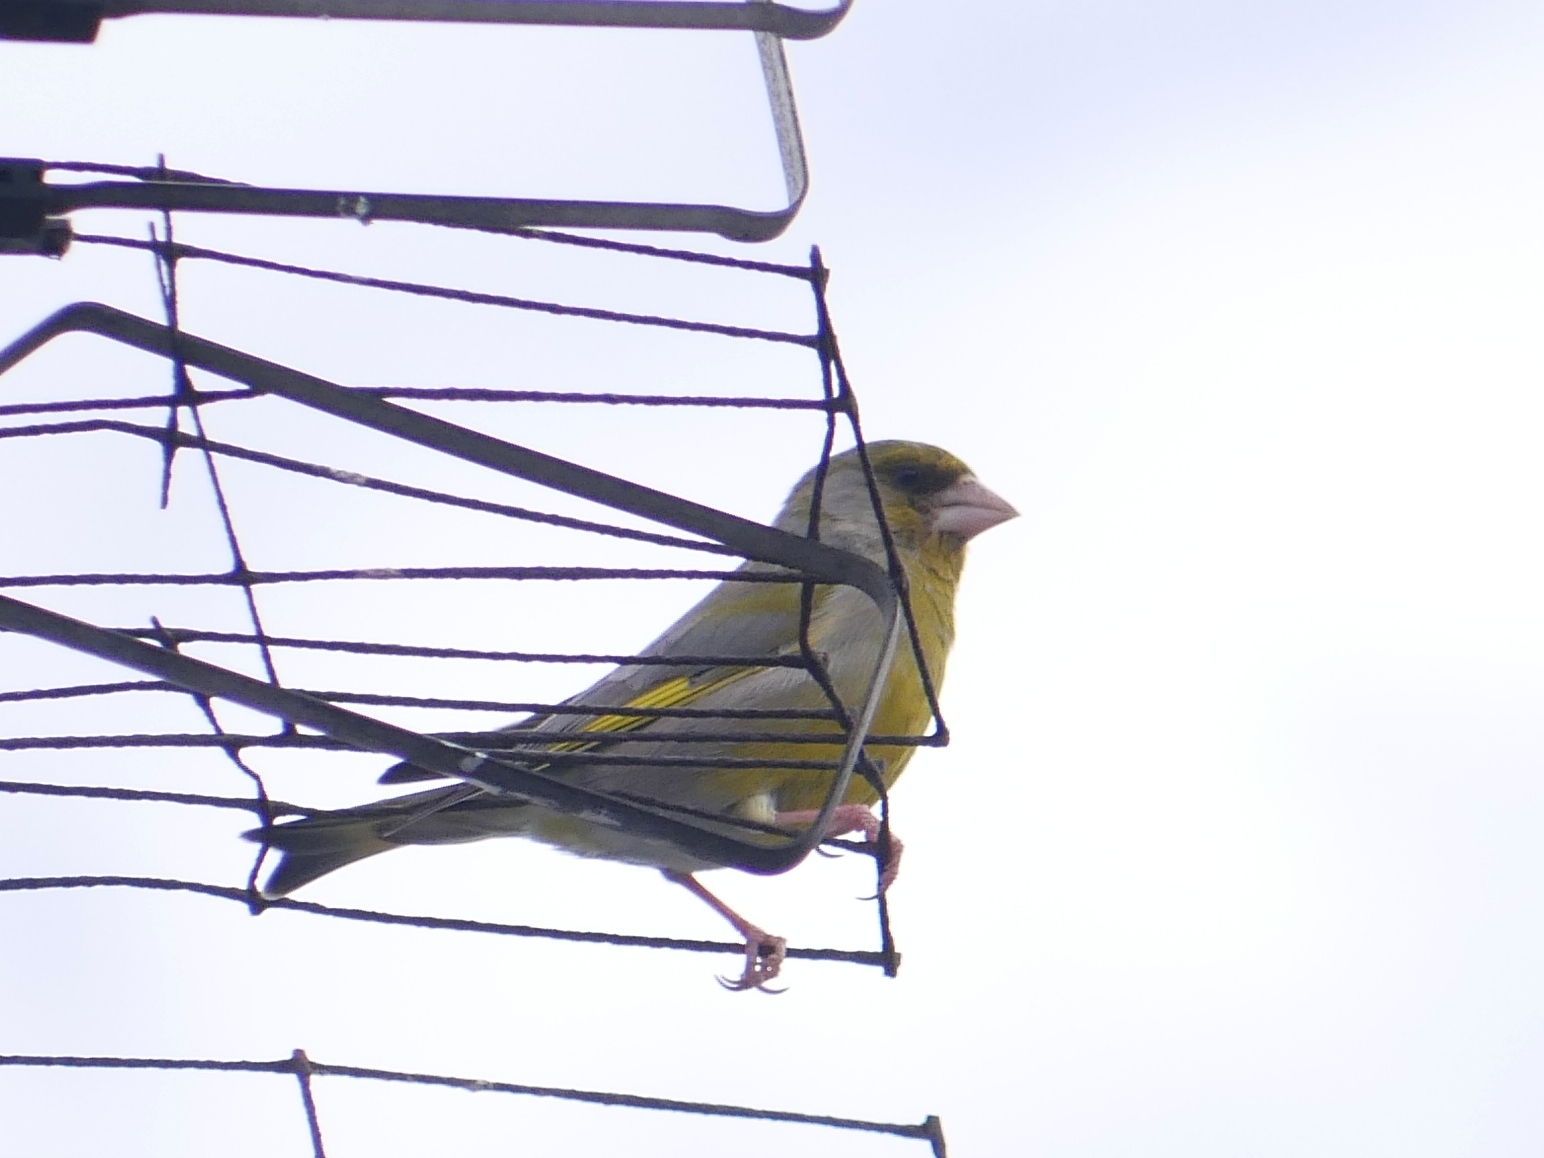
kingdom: Plantae
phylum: Tracheophyta
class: Liliopsida
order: Poales
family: Poaceae
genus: Chloris
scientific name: Chloris chloris
